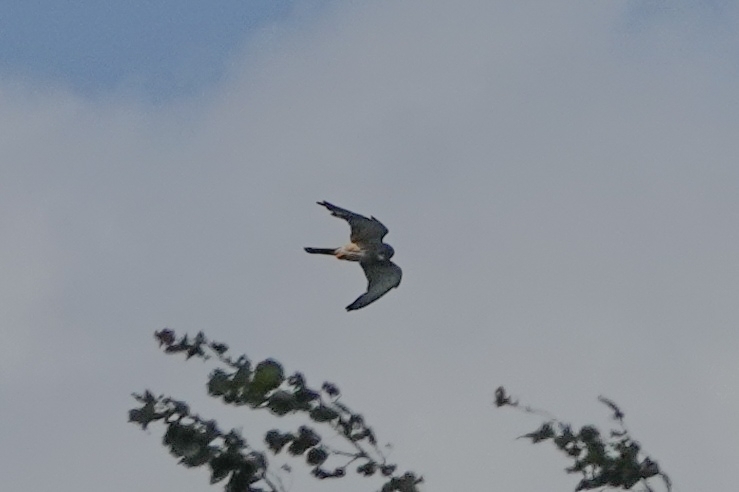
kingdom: Animalia
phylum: Chordata
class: Aves
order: Falconiformes
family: Falconidae
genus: Falco
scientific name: Falco tinnunculus
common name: Common kestrel
